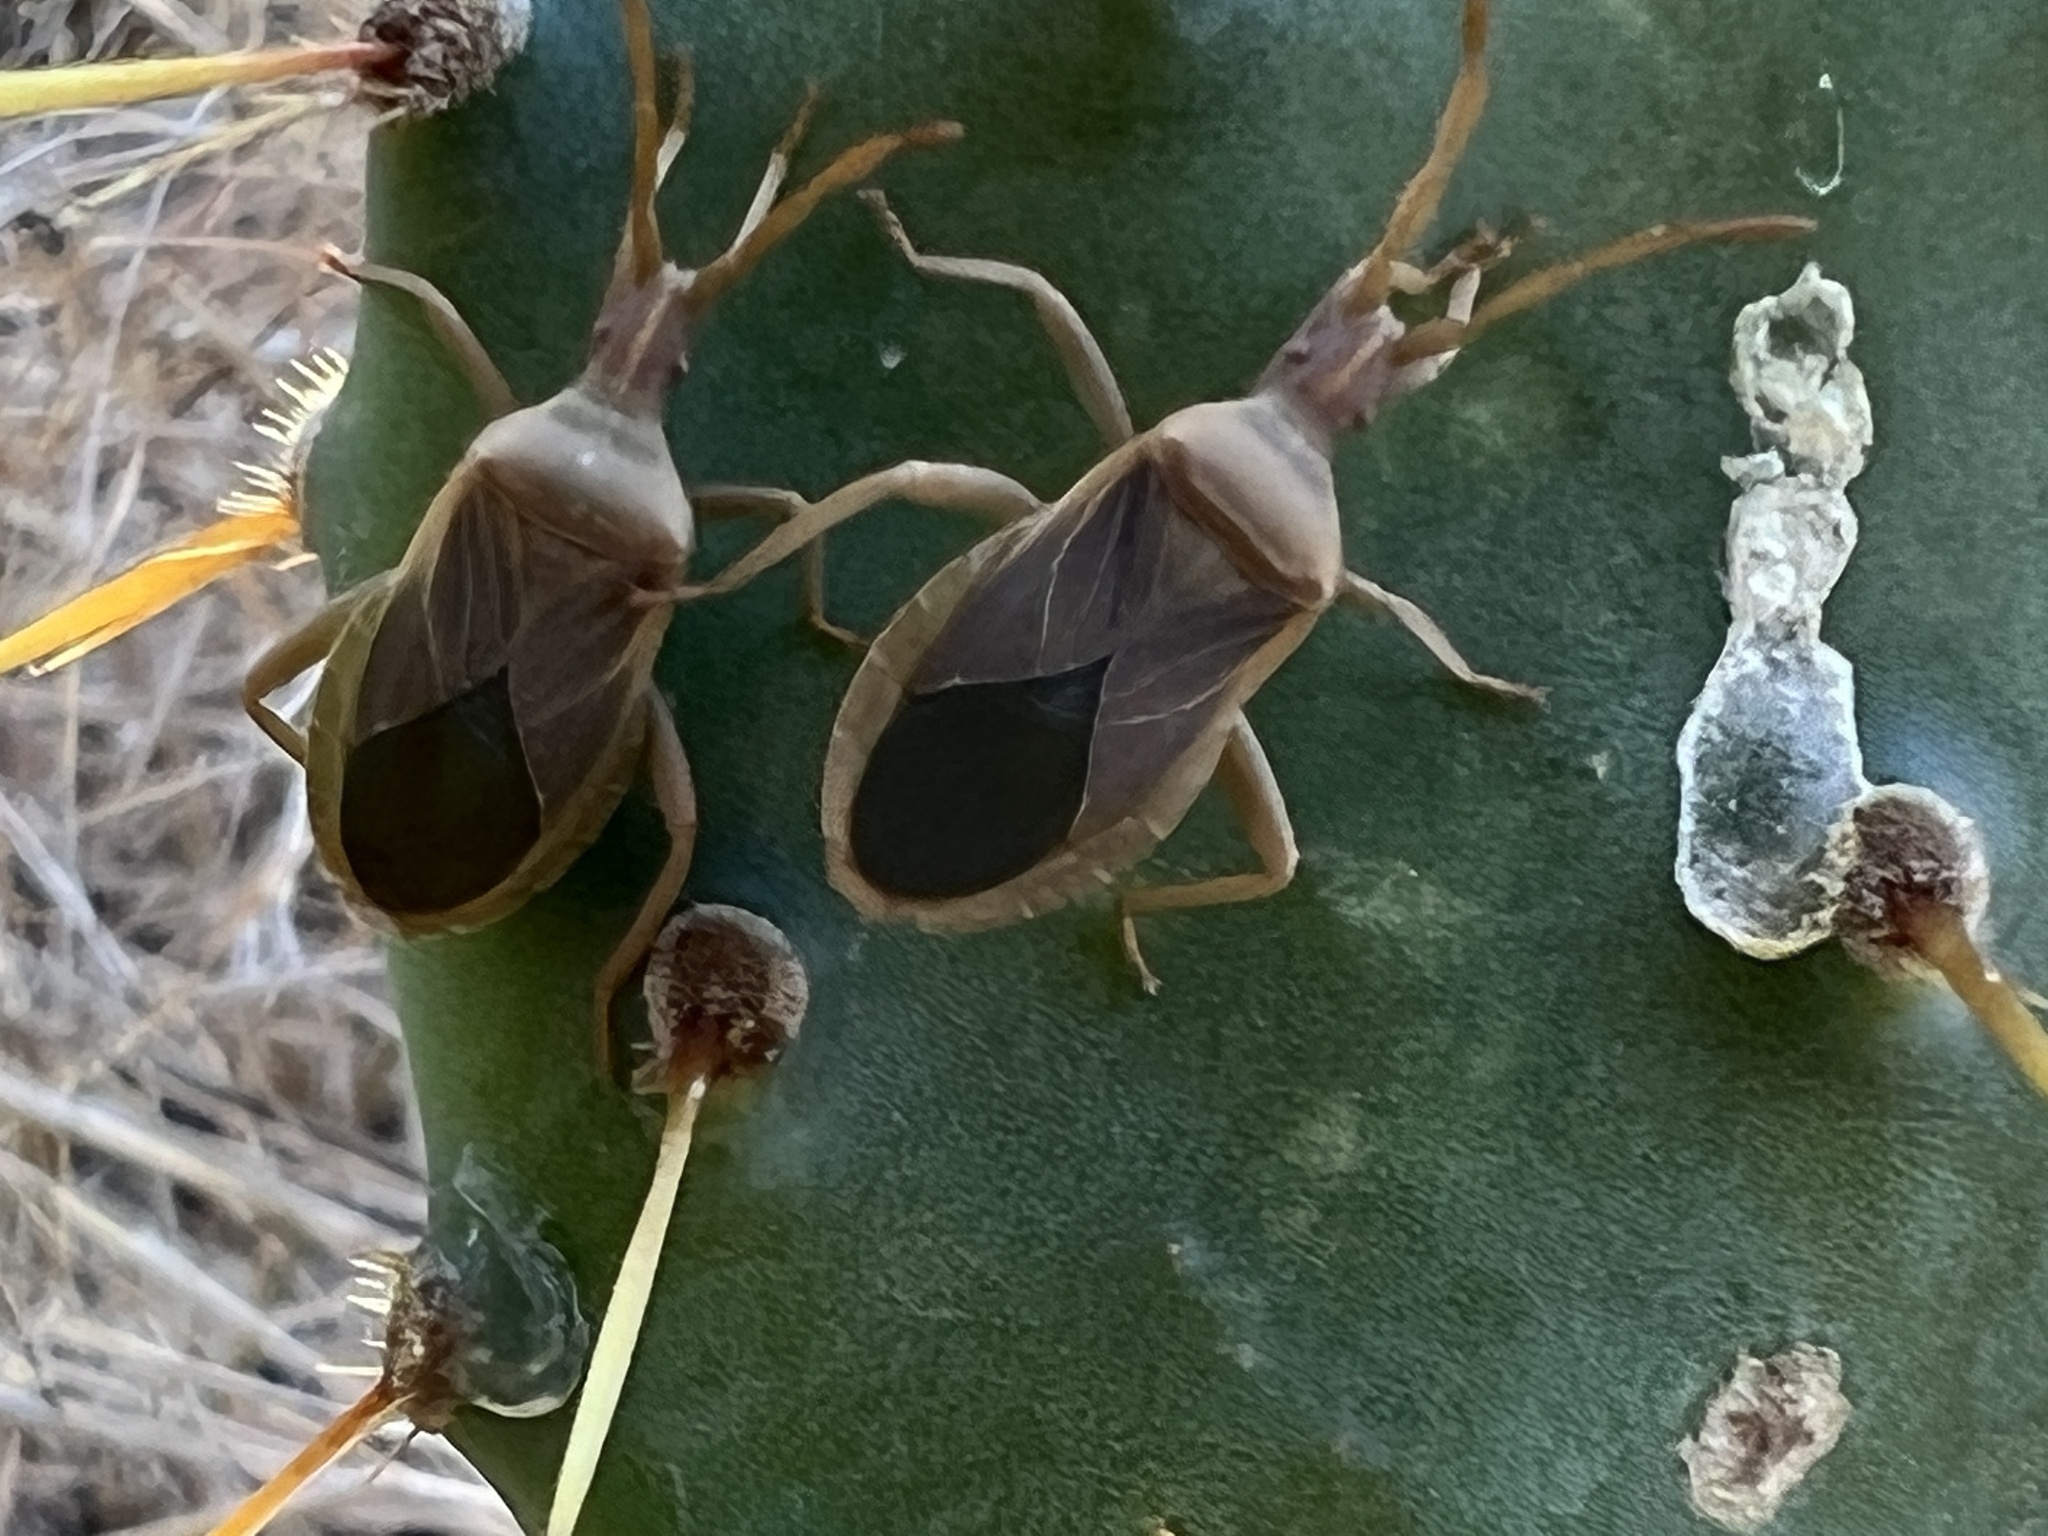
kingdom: Animalia
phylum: Arthropoda
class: Insecta
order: Hemiptera
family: Coreidae
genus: Chelinidea
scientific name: Chelinidea vittiger
